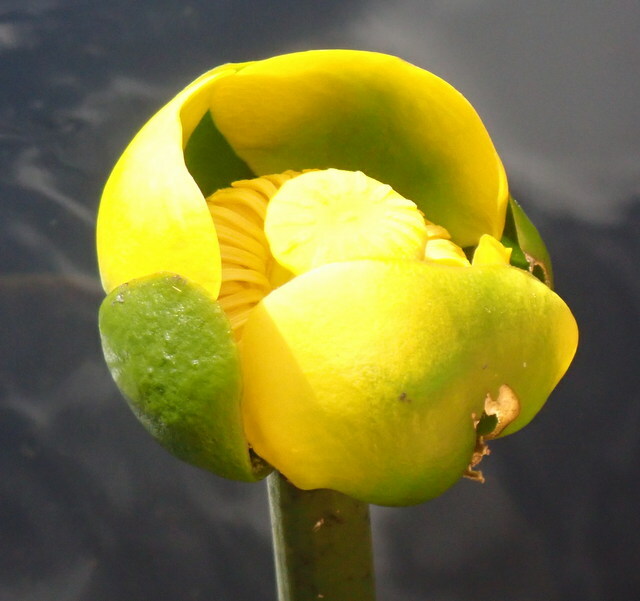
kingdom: Plantae
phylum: Tracheophyta
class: Magnoliopsida
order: Nymphaeales
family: Nymphaeaceae
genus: Nuphar
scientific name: Nuphar advena
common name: Spatter-dock
